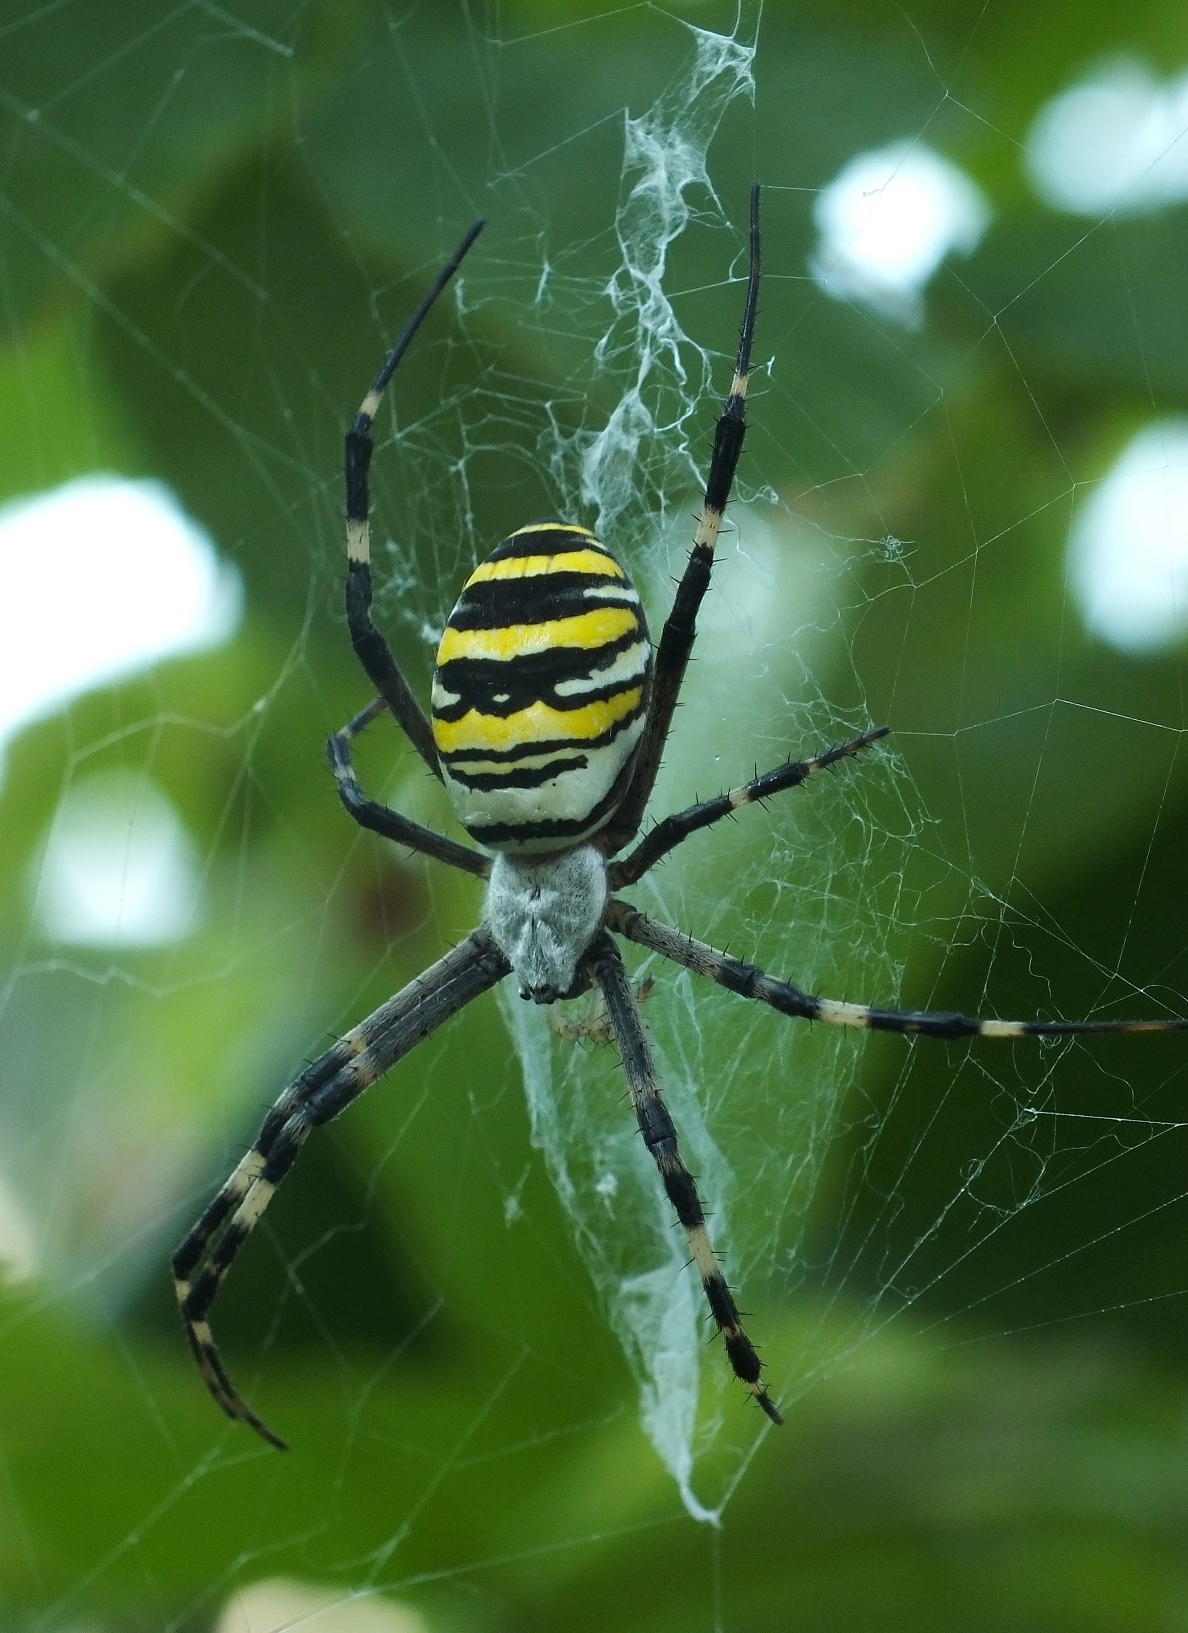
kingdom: Animalia
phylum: Arthropoda
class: Arachnida
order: Araneae
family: Araneidae
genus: Argiope
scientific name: Argiope bruennichi
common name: Wasp spider
